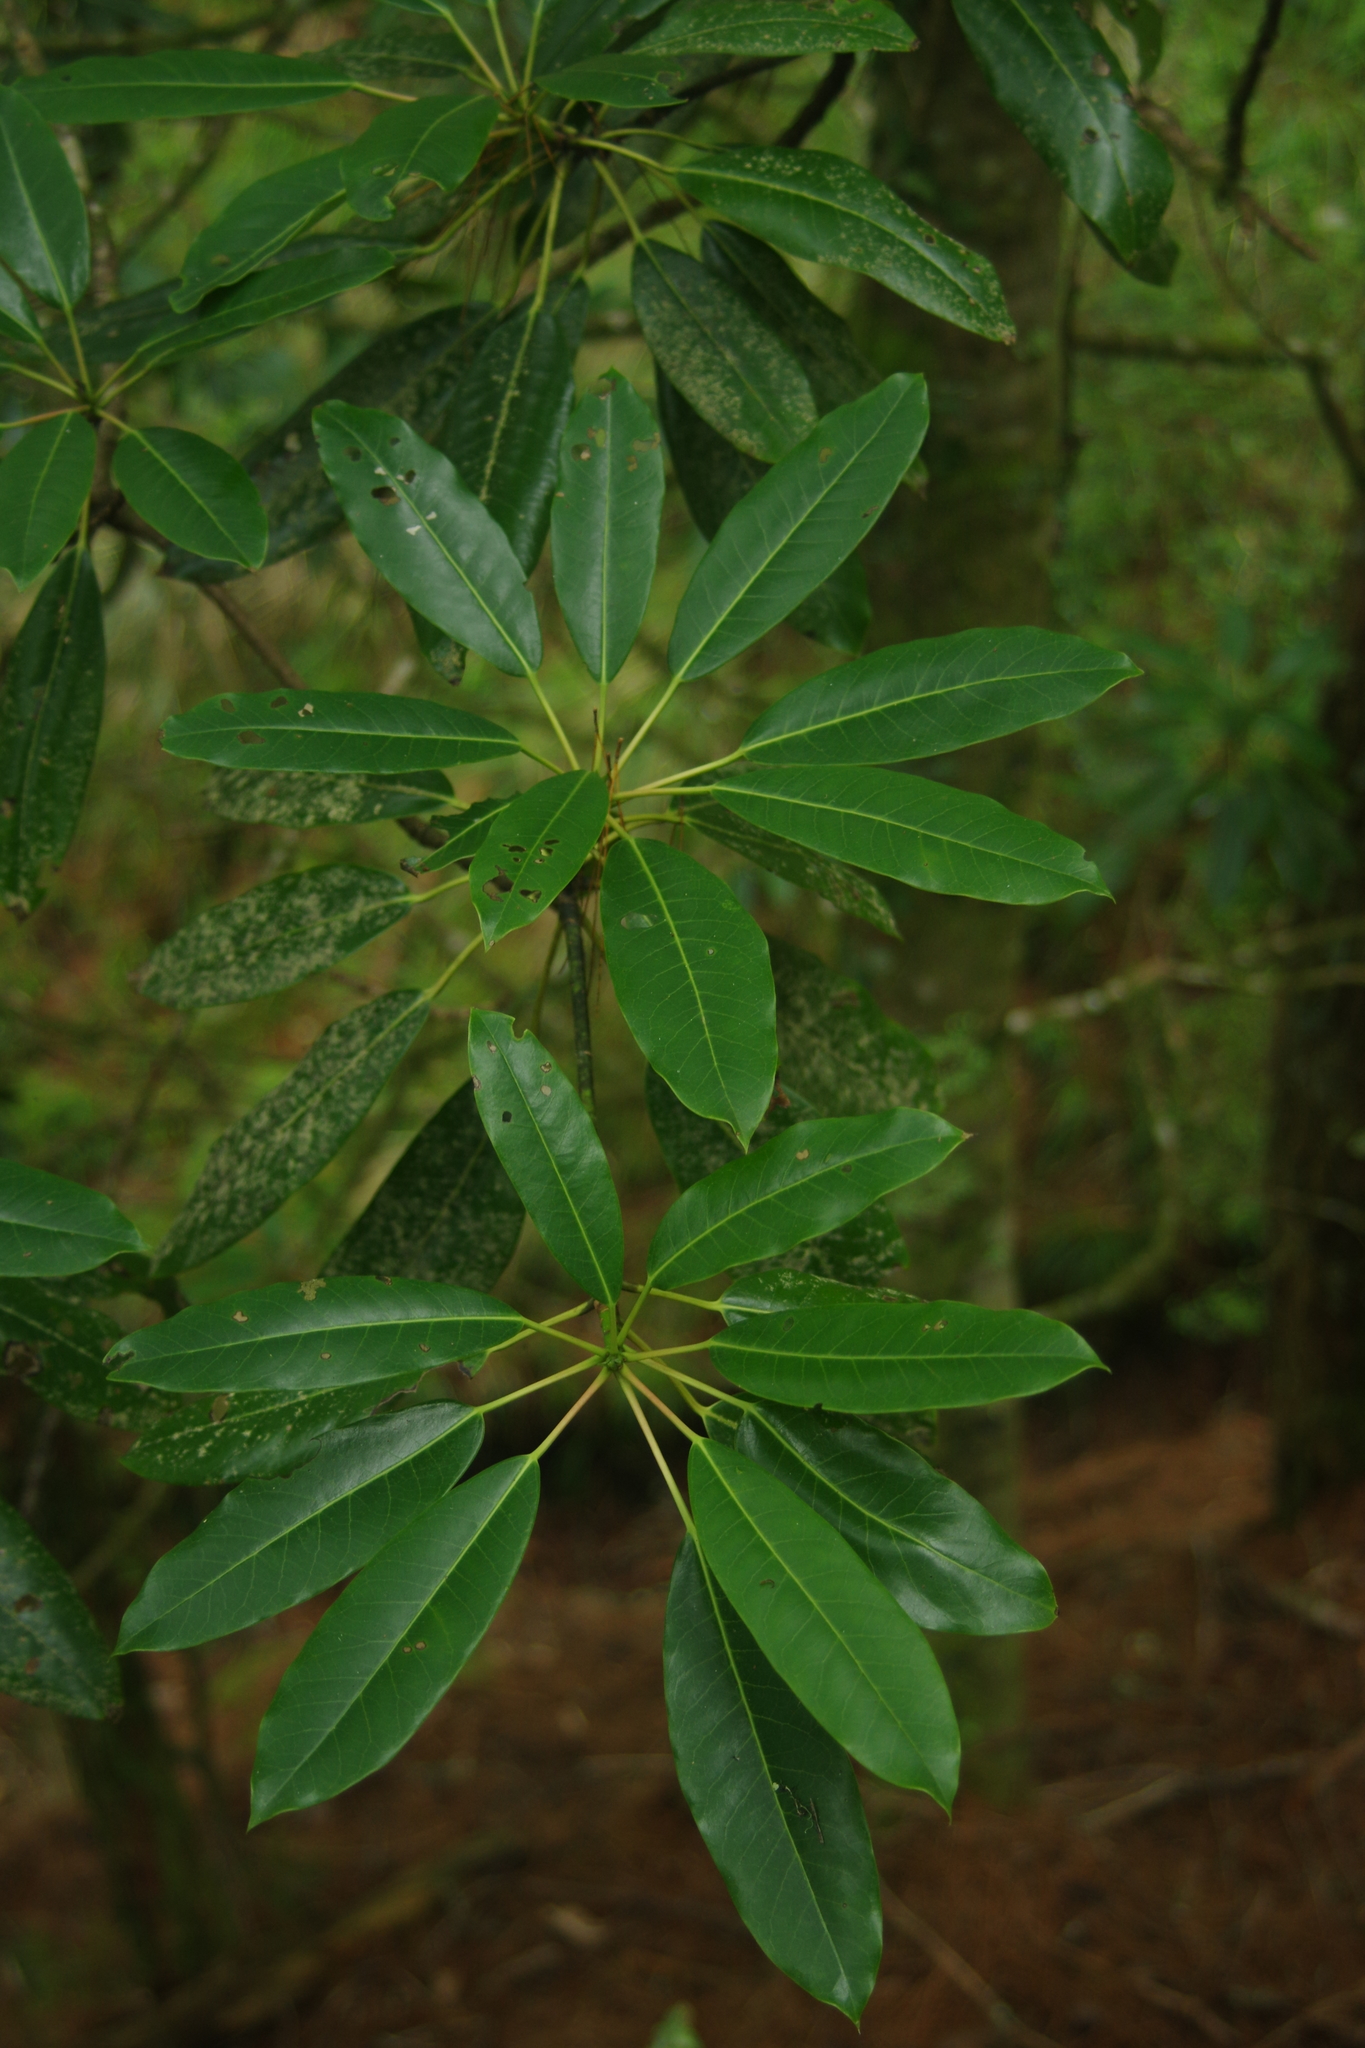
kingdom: Plantae
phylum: Tracheophyta
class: Magnoliopsida
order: Saxifragales
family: Daphniphyllaceae
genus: Daphniphyllum
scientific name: Daphniphyllum pentandrum
